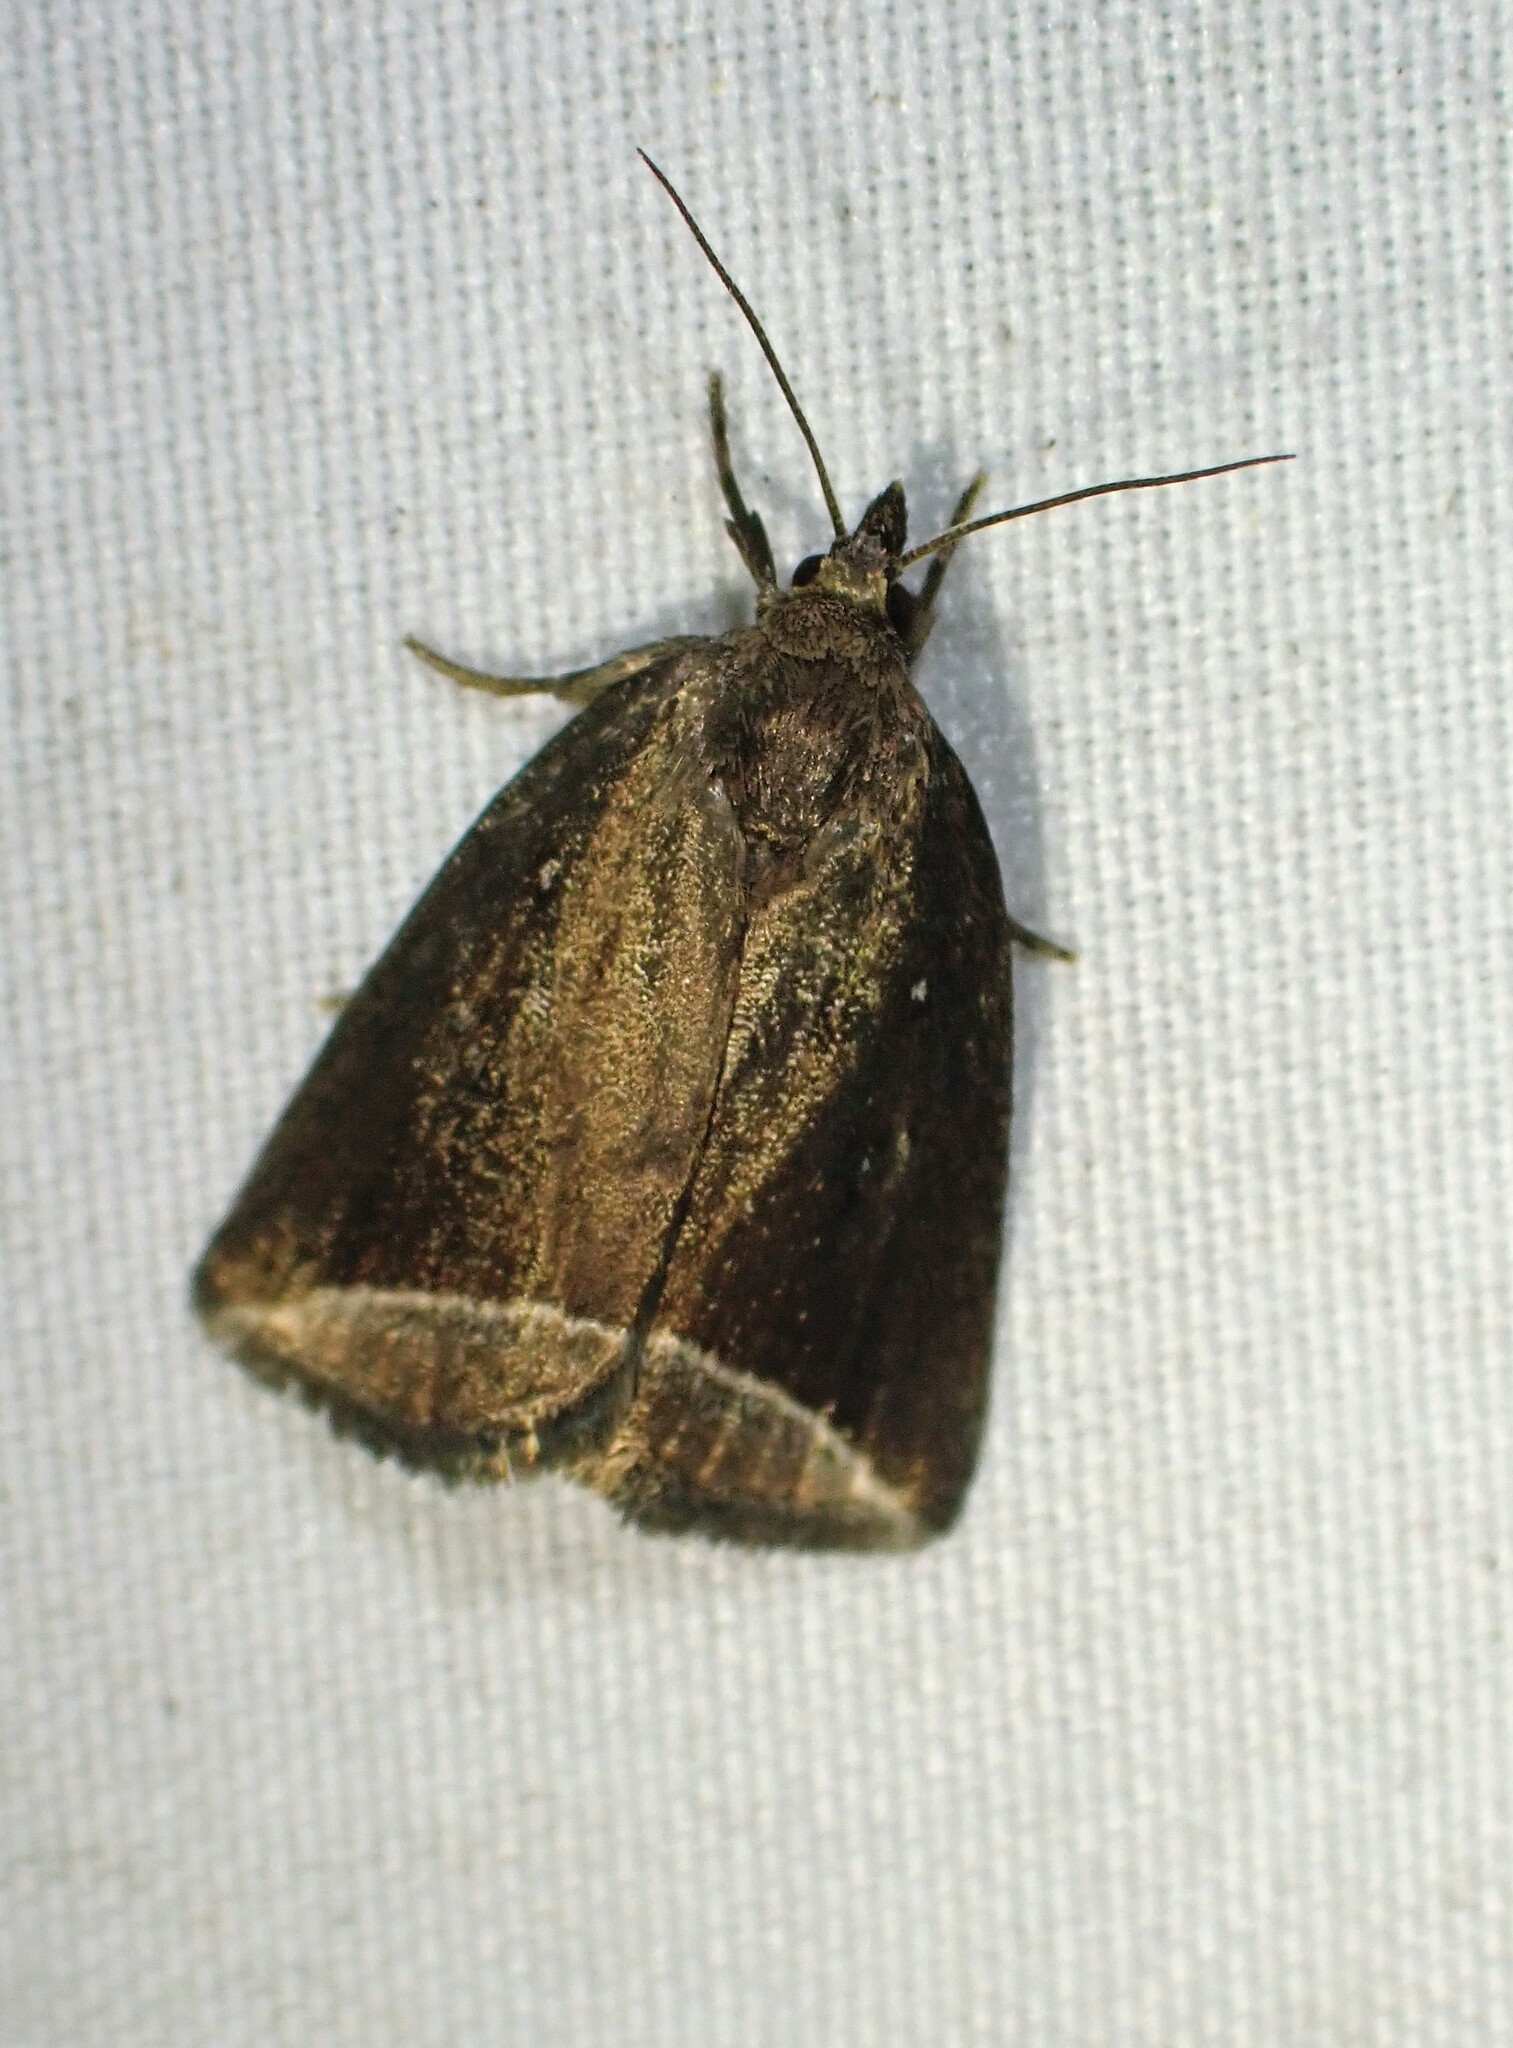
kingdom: Animalia
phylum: Arthropoda
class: Insecta
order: Lepidoptera
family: Erebidae
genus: Capis
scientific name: Capis curvata
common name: Curved halter moth
